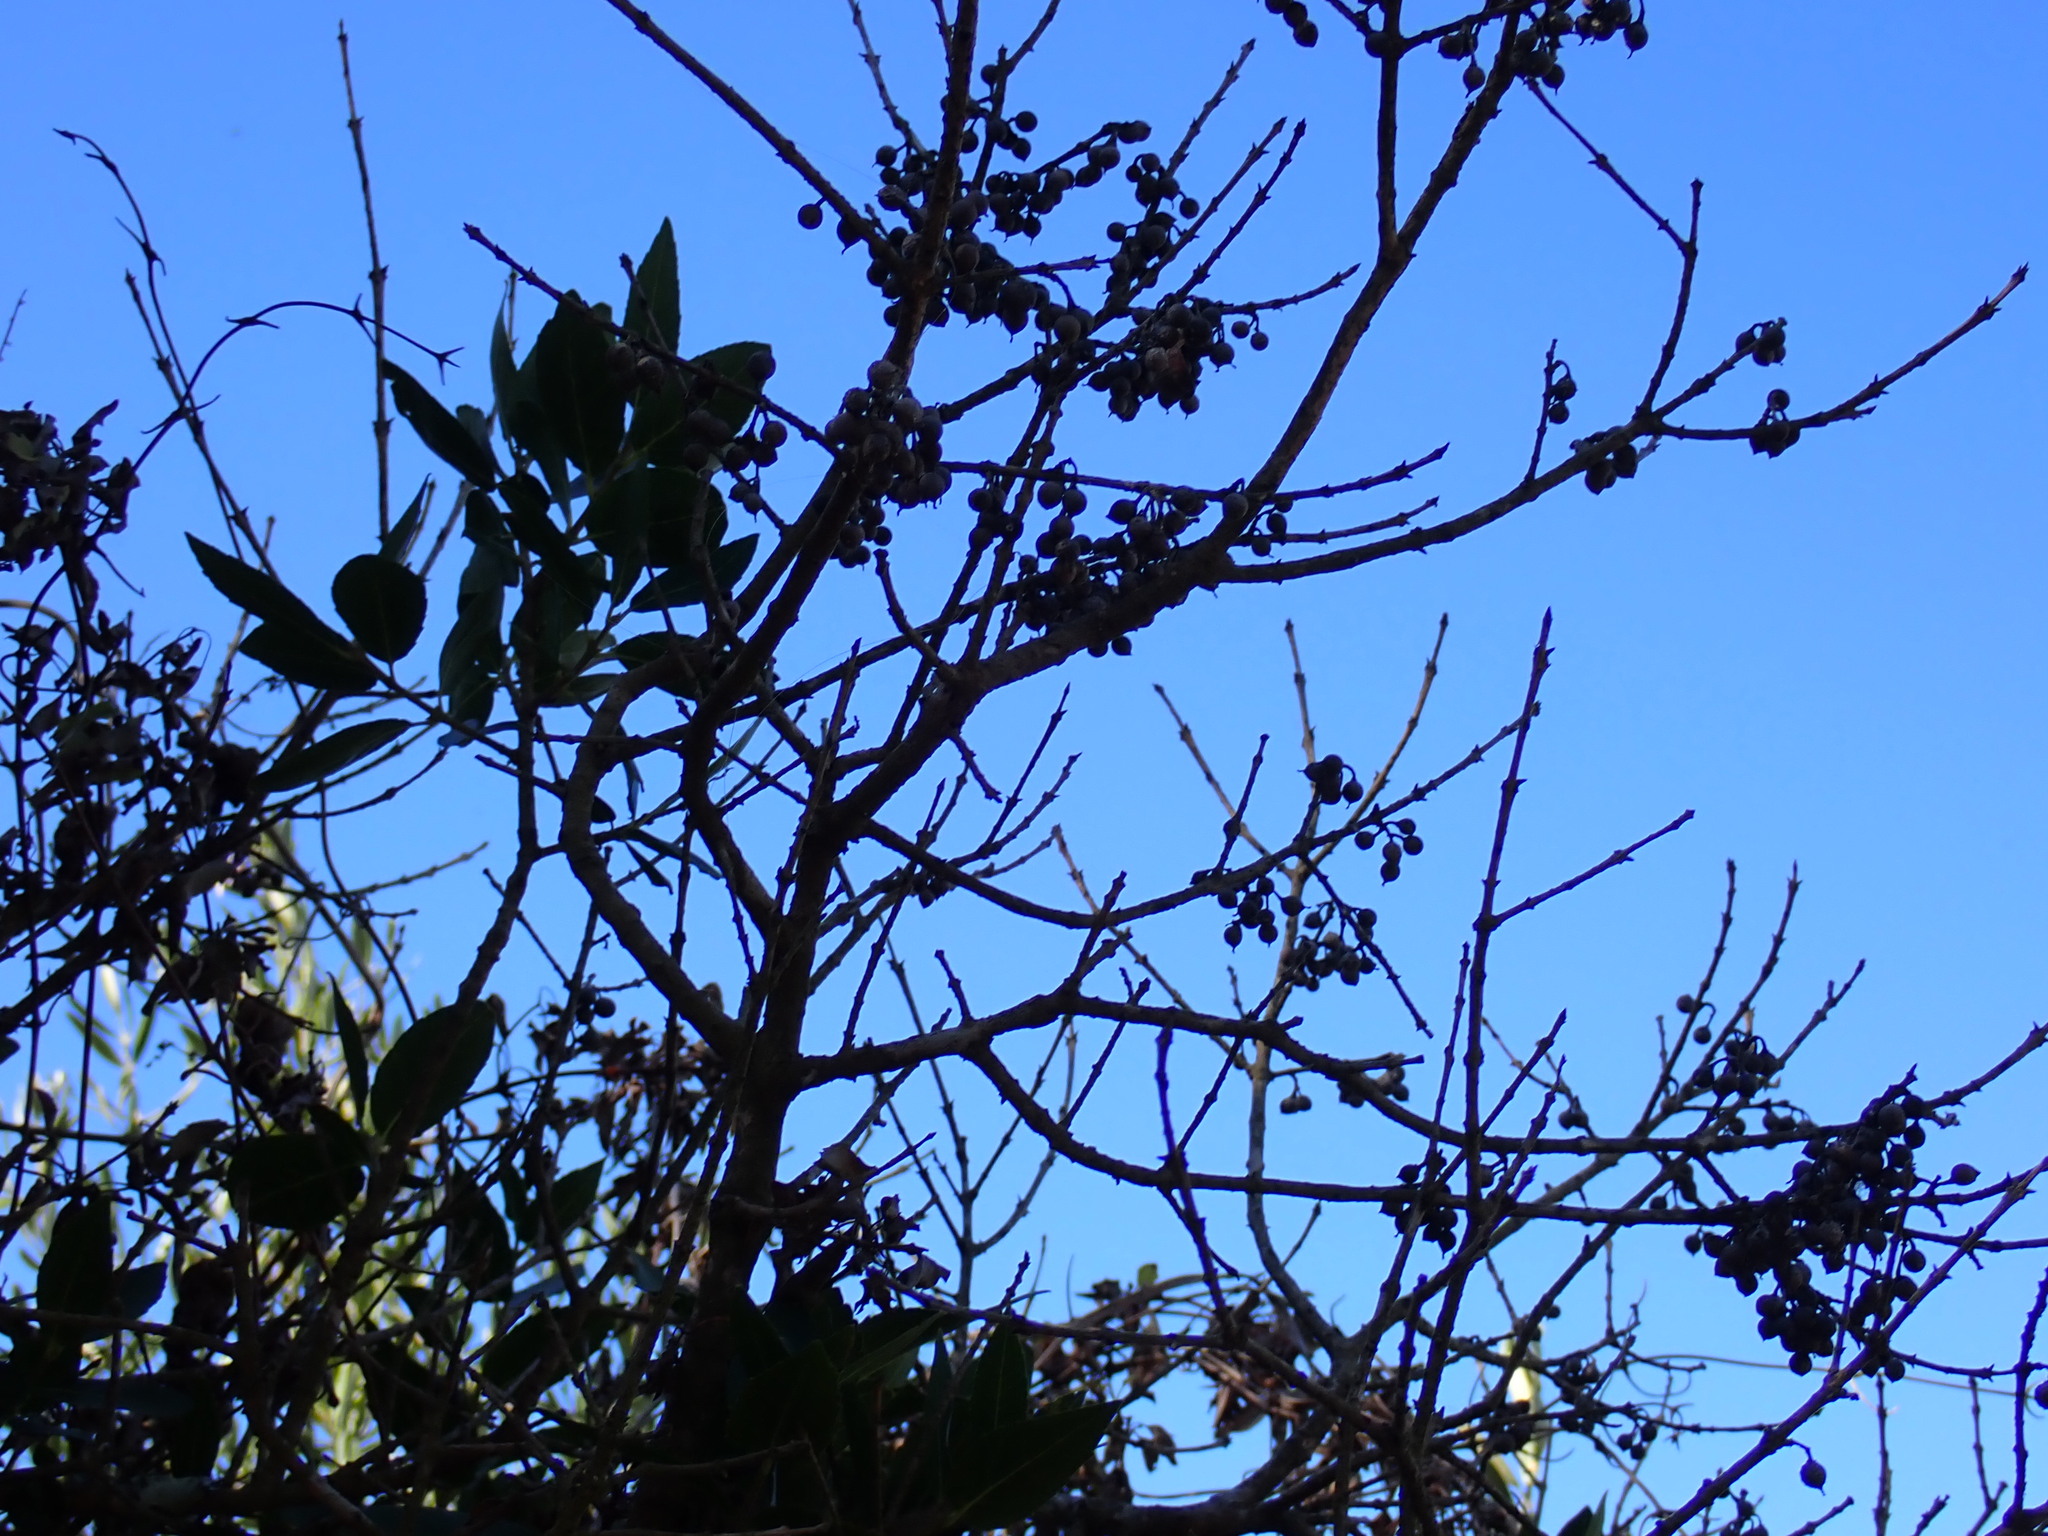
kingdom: Plantae
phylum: Tracheophyta
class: Magnoliopsida
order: Lamiales
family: Oleaceae
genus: Phillyrea
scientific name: Phillyrea latifolia
